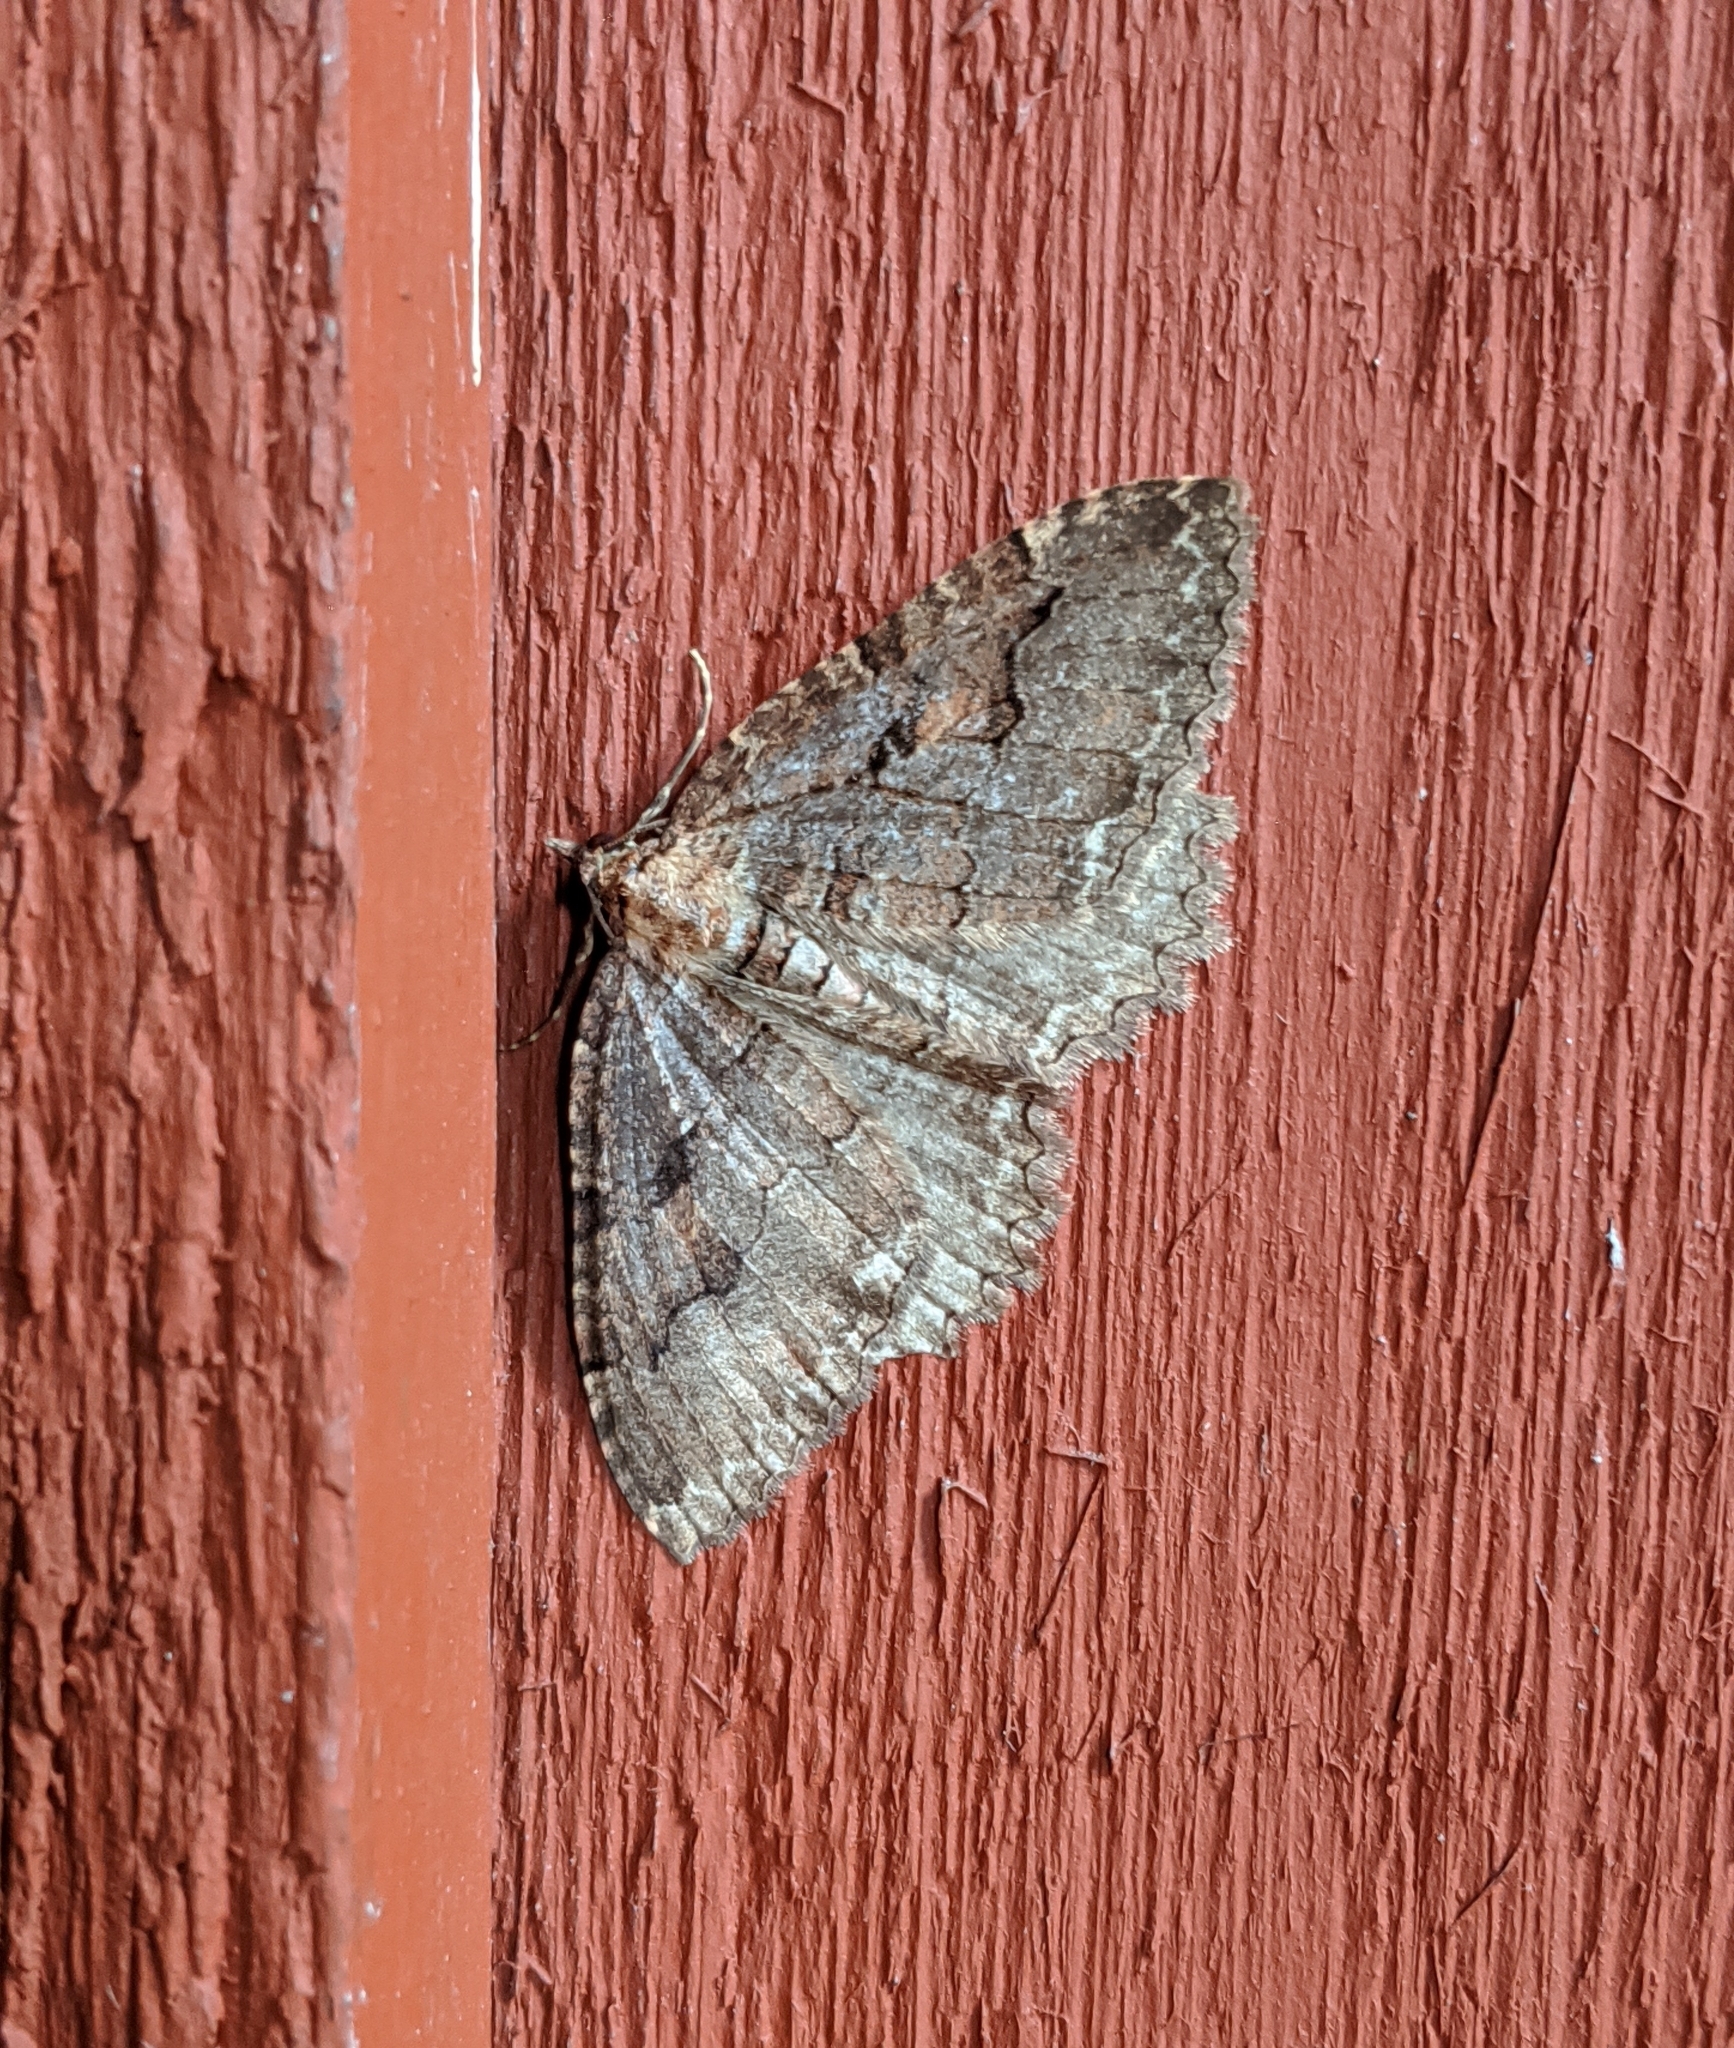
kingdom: Animalia
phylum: Arthropoda
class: Insecta
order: Lepidoptera
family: Geometridae
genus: Triphosa
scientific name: Triphosa haesitata
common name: Tissue moth
